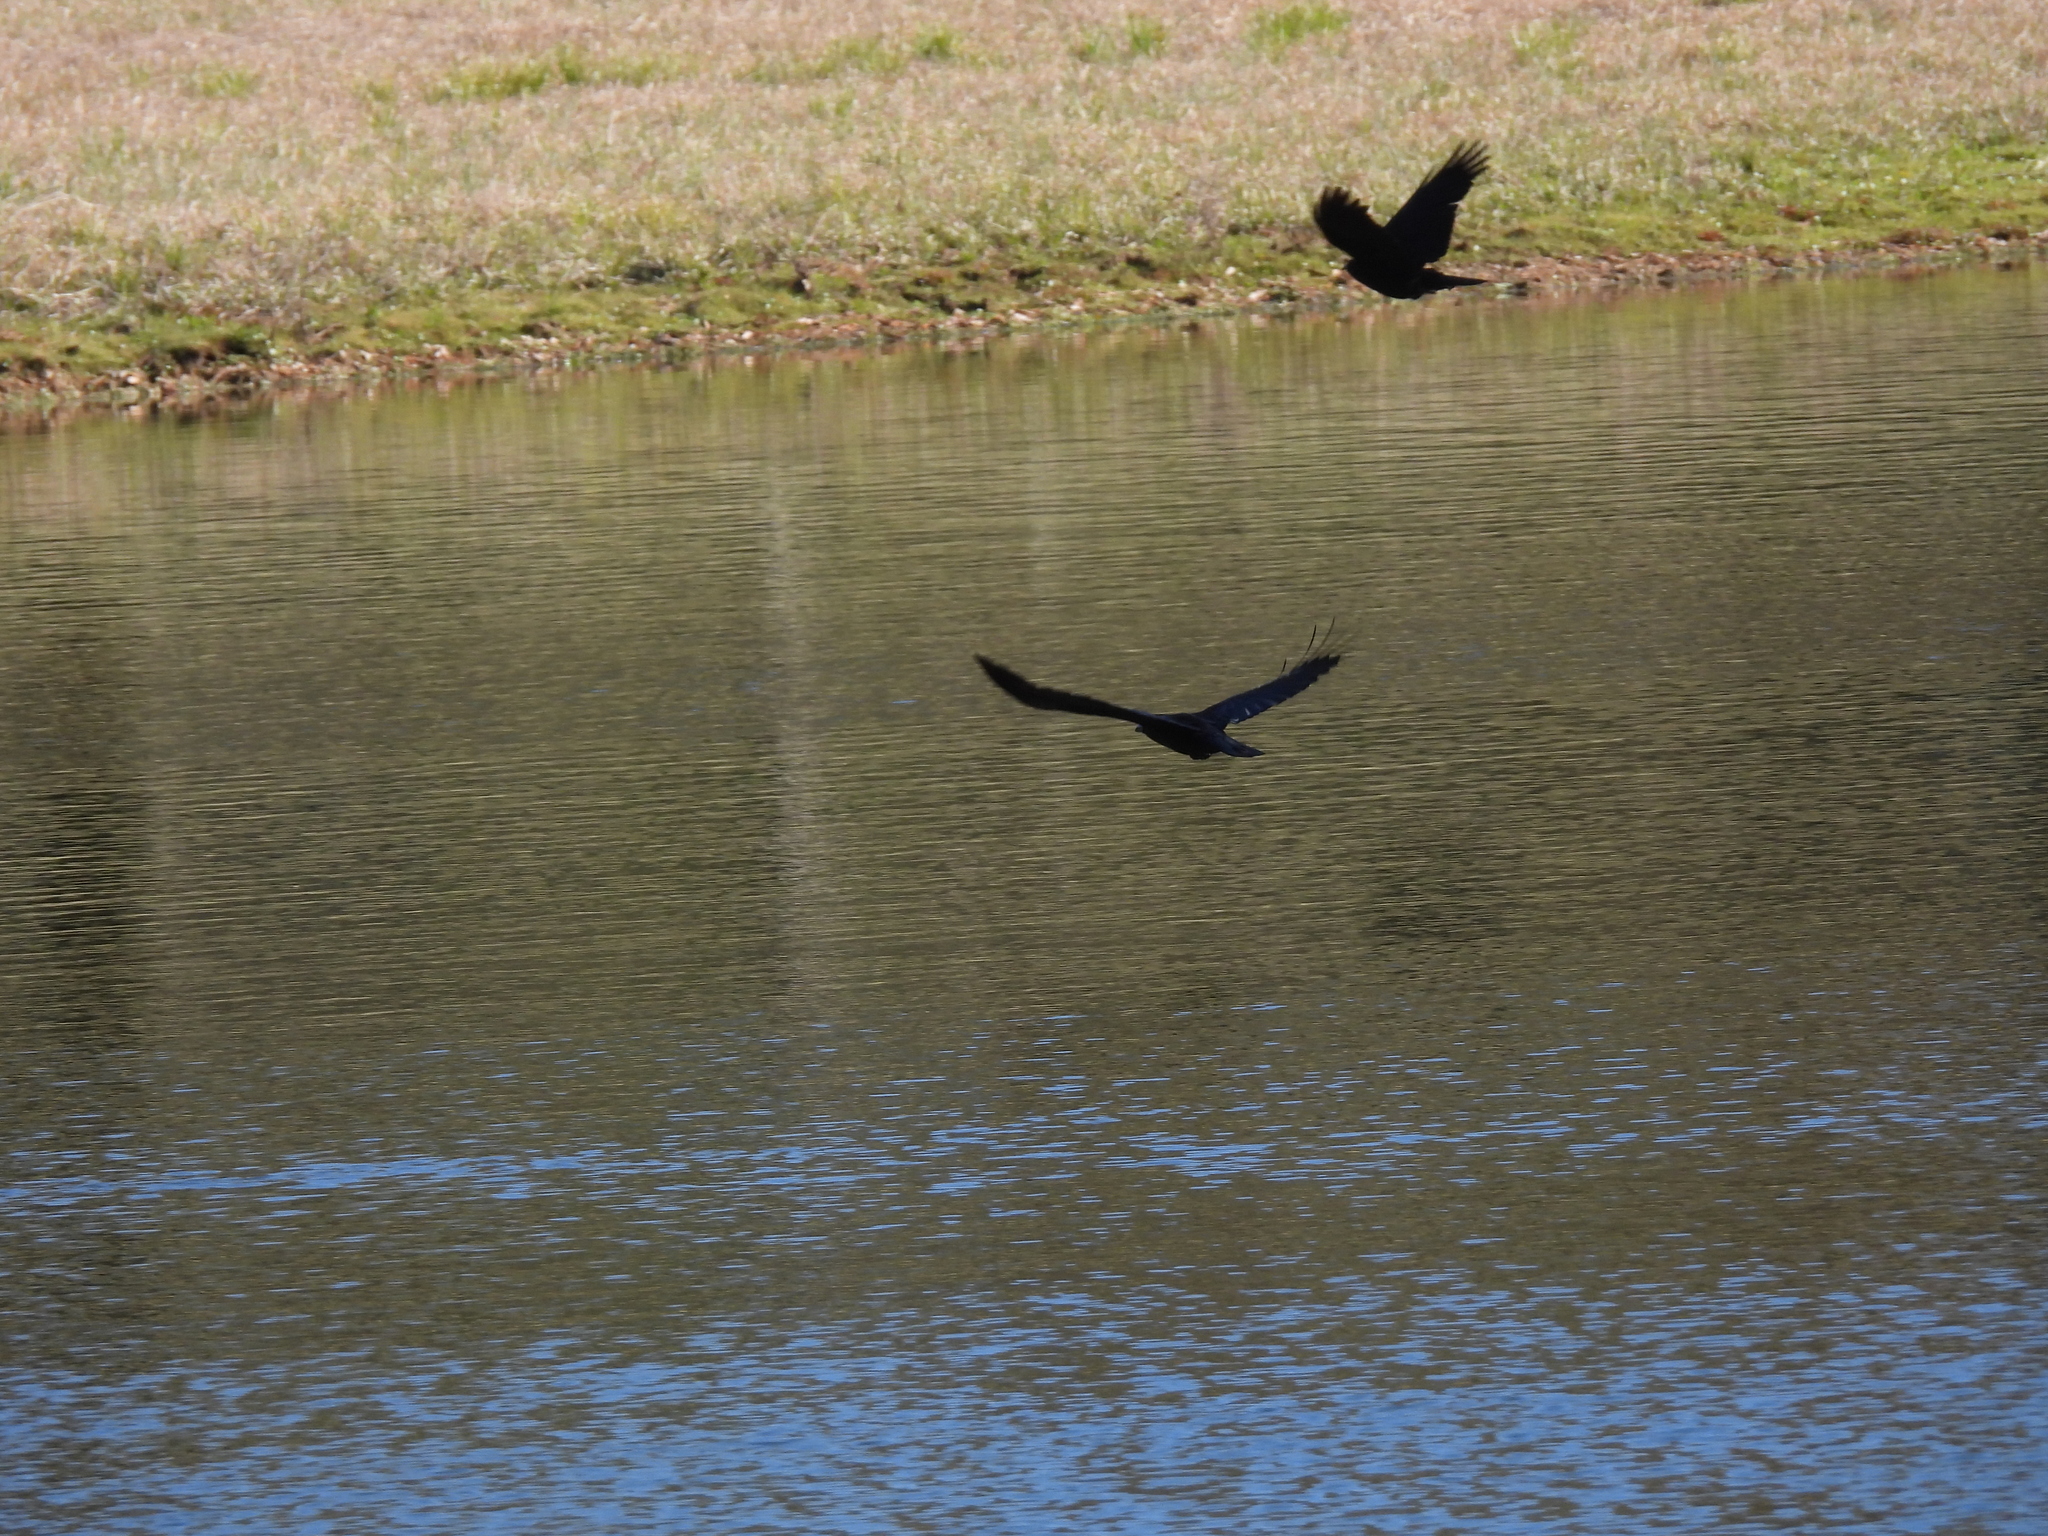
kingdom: Animalia
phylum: Chordata
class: Aves
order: Passeriformes
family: Corvidae
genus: Corvus
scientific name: Corvus brachyrhynchos
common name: American crow
